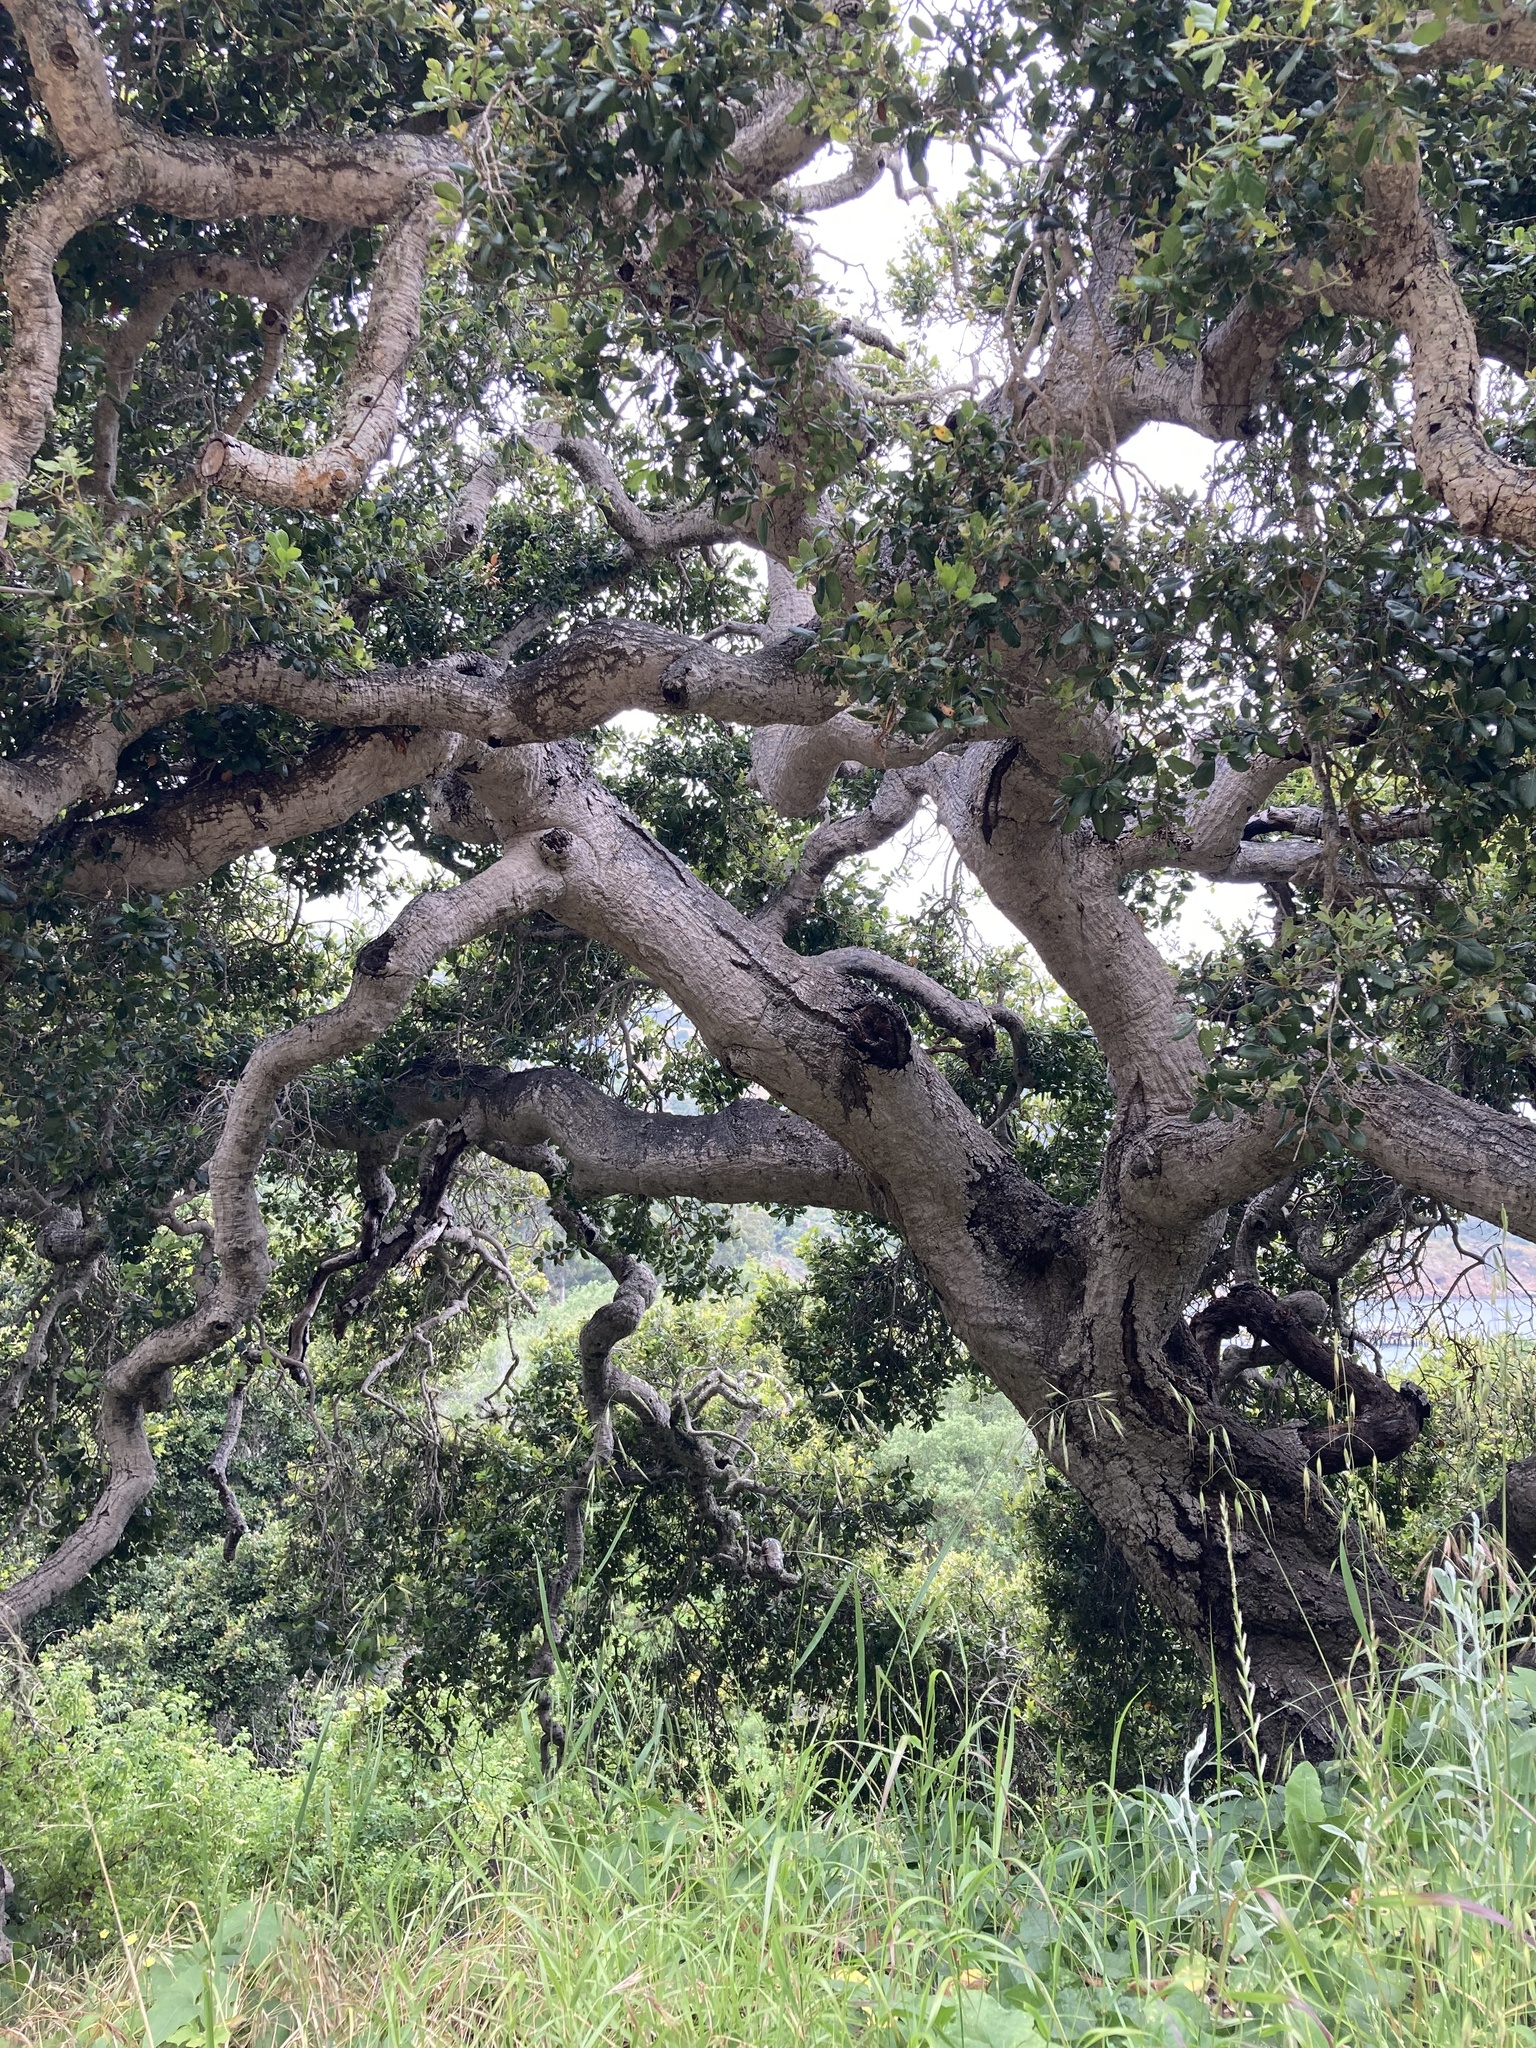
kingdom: Plantae
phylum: Tracheophyta
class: Magnoliopsida
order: Fagales
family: Fagaceae
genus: Quercus
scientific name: Quercus agrifolia
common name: California live oak
